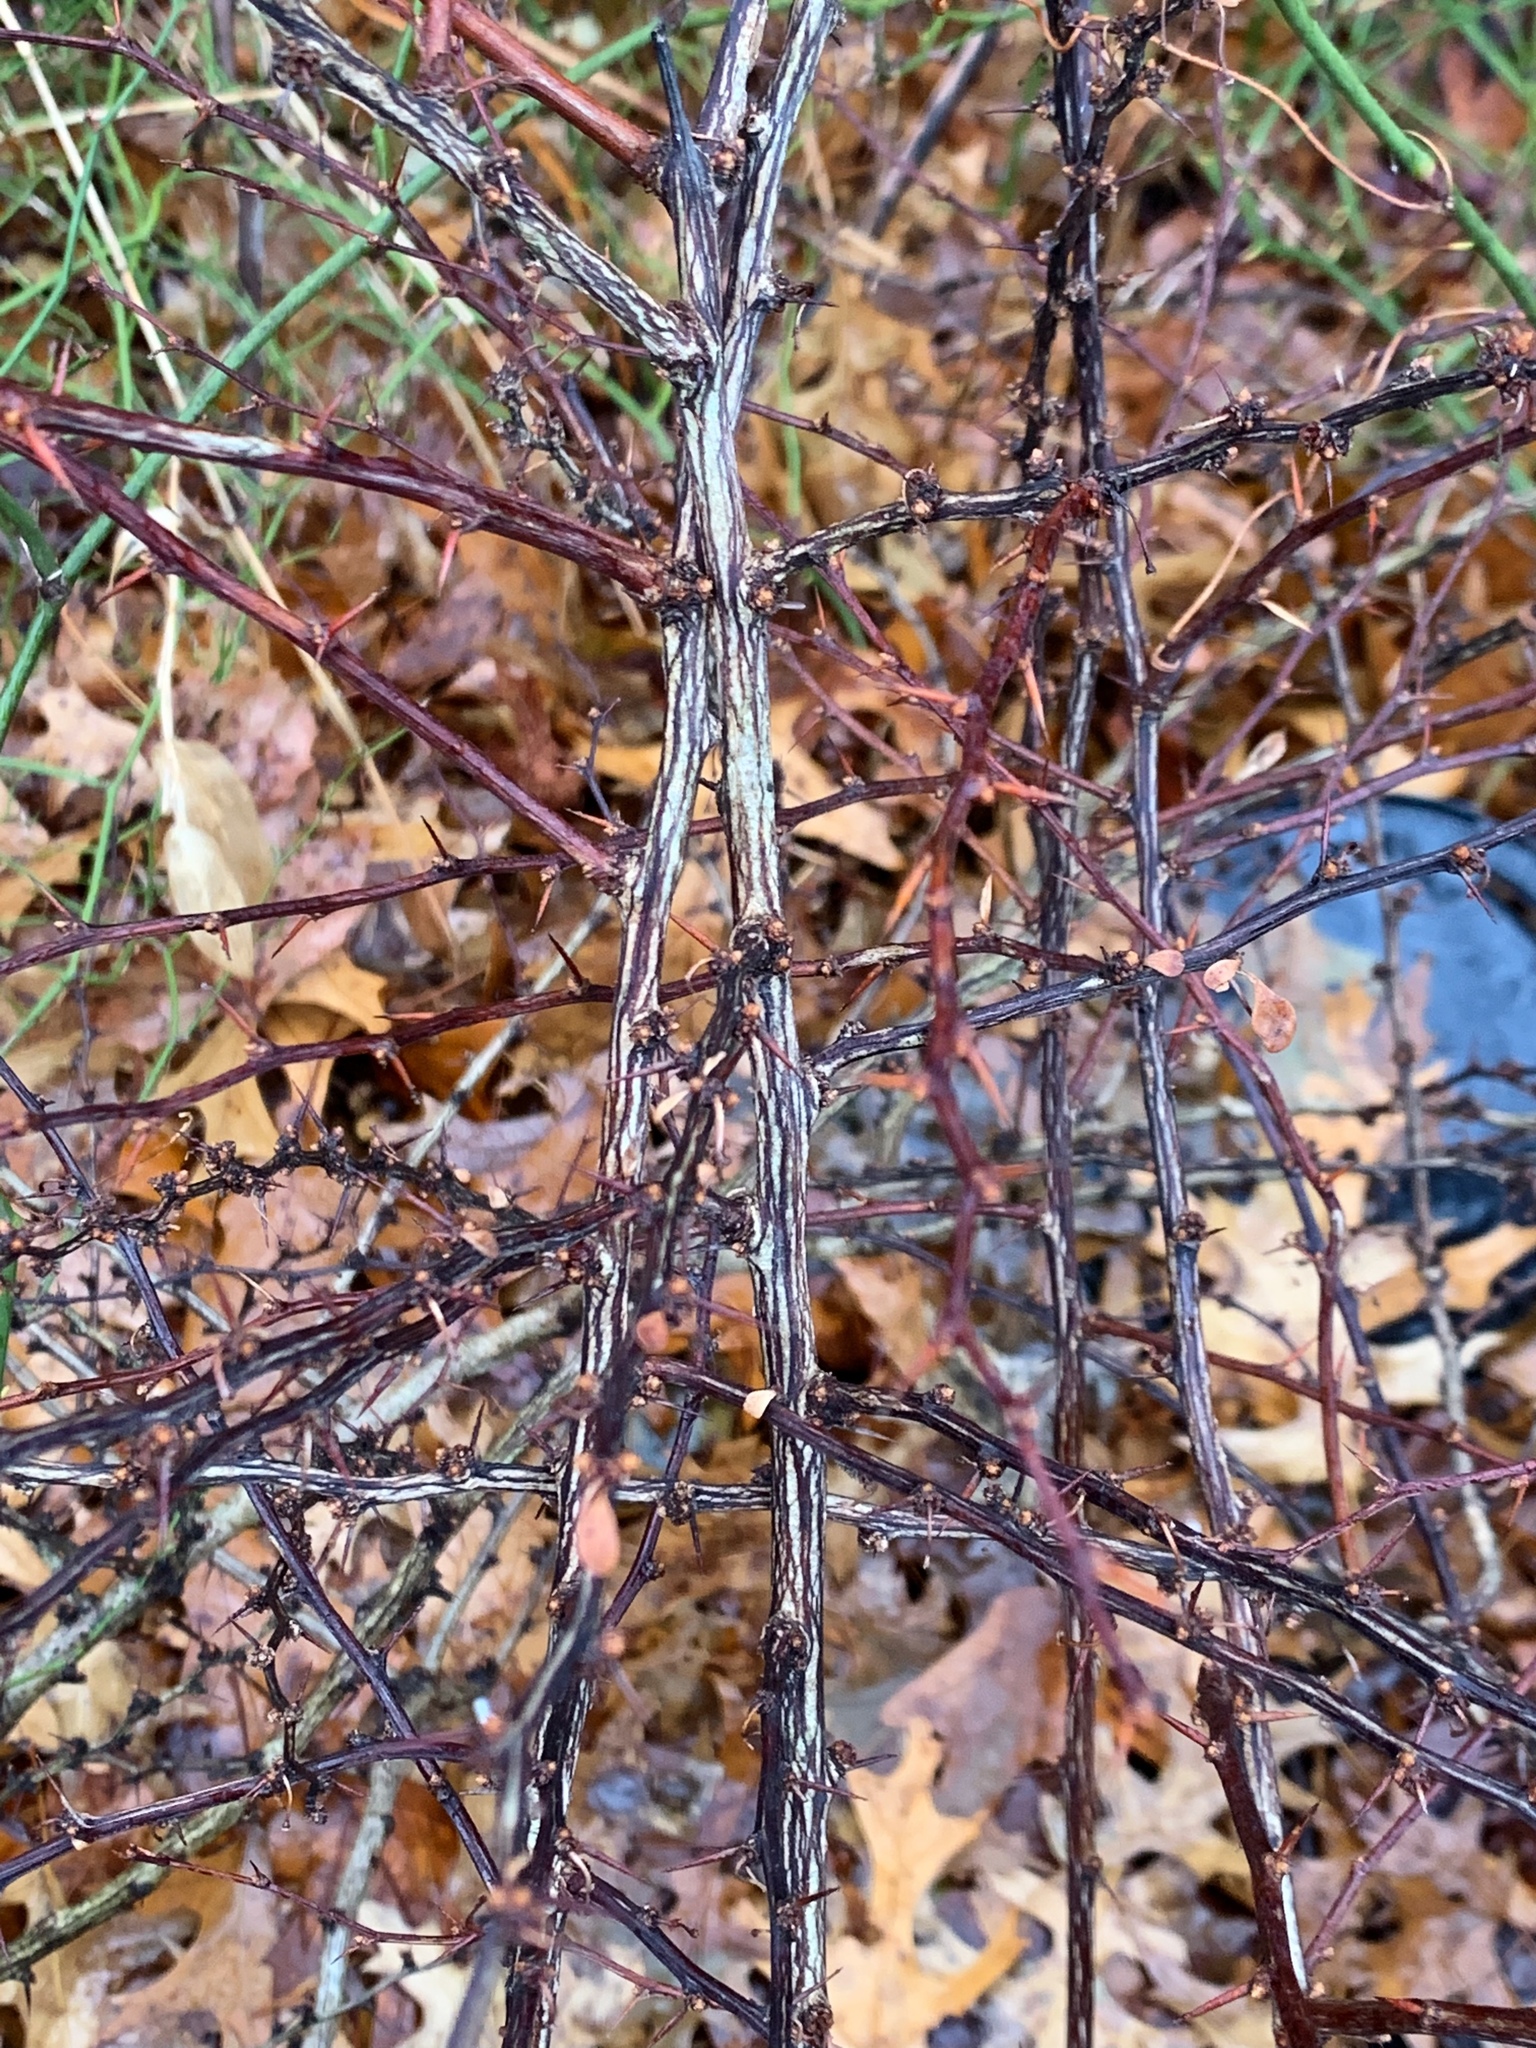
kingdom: Plantae
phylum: Tracheophyta
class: Magnoliopsida
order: Ranunculales
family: Berberidaceae
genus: Berberis
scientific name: Berberis thunbergii
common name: Japanese barberry
